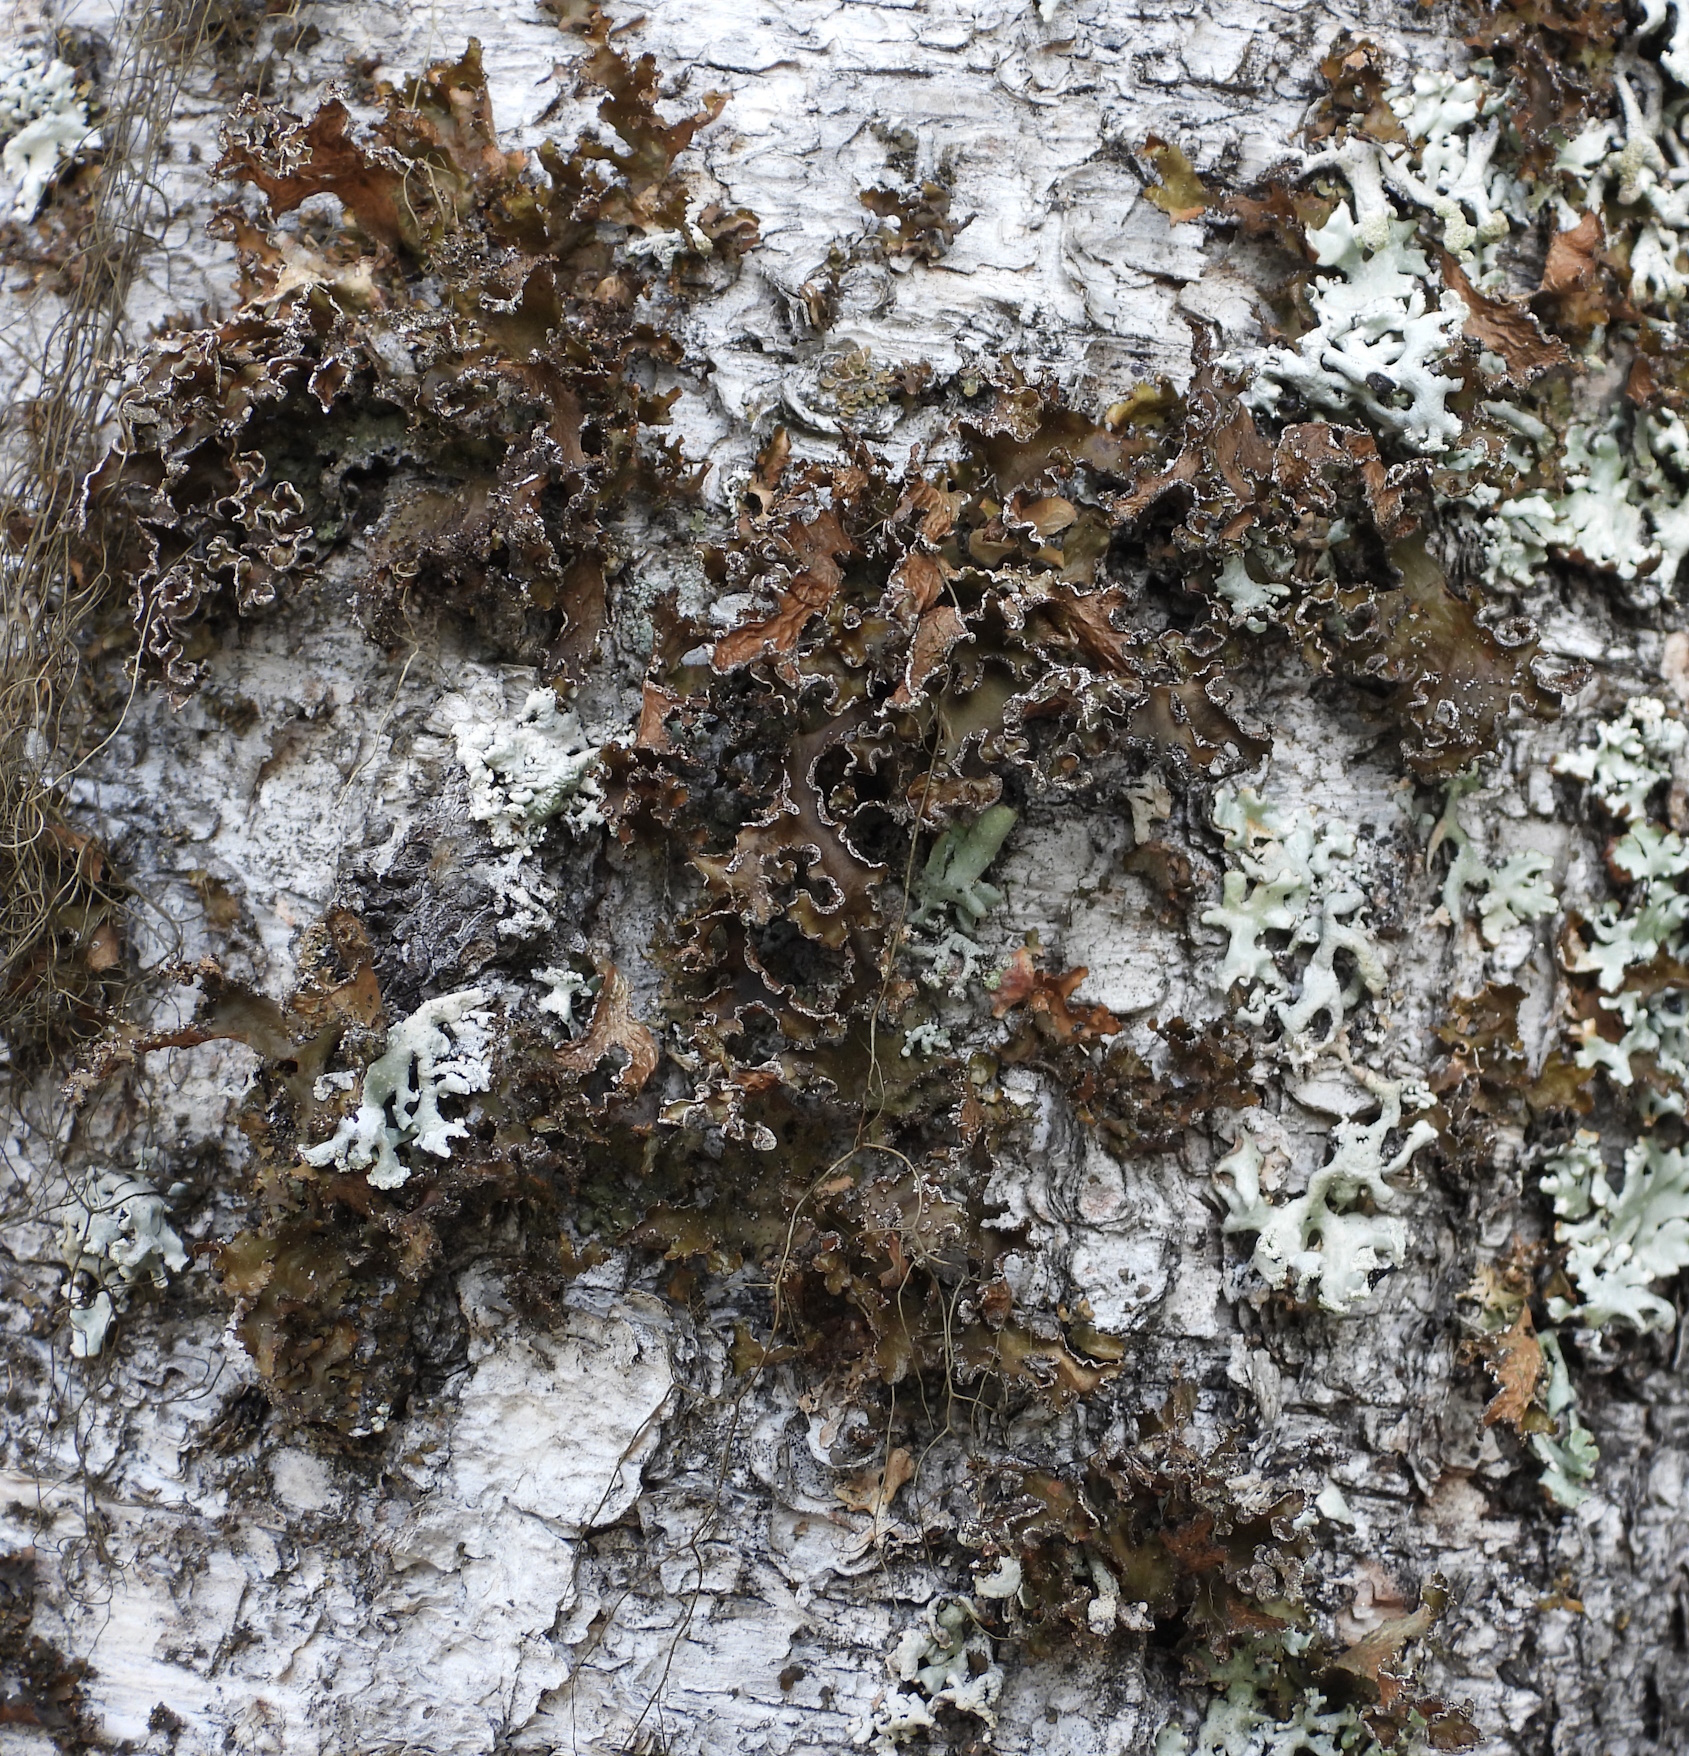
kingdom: Fungi
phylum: Ascomycota
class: Lecanoromycetes
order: Lecanorales
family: Parmeliaceae
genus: Nephromopsis
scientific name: Nephromopsis chlorophylla
